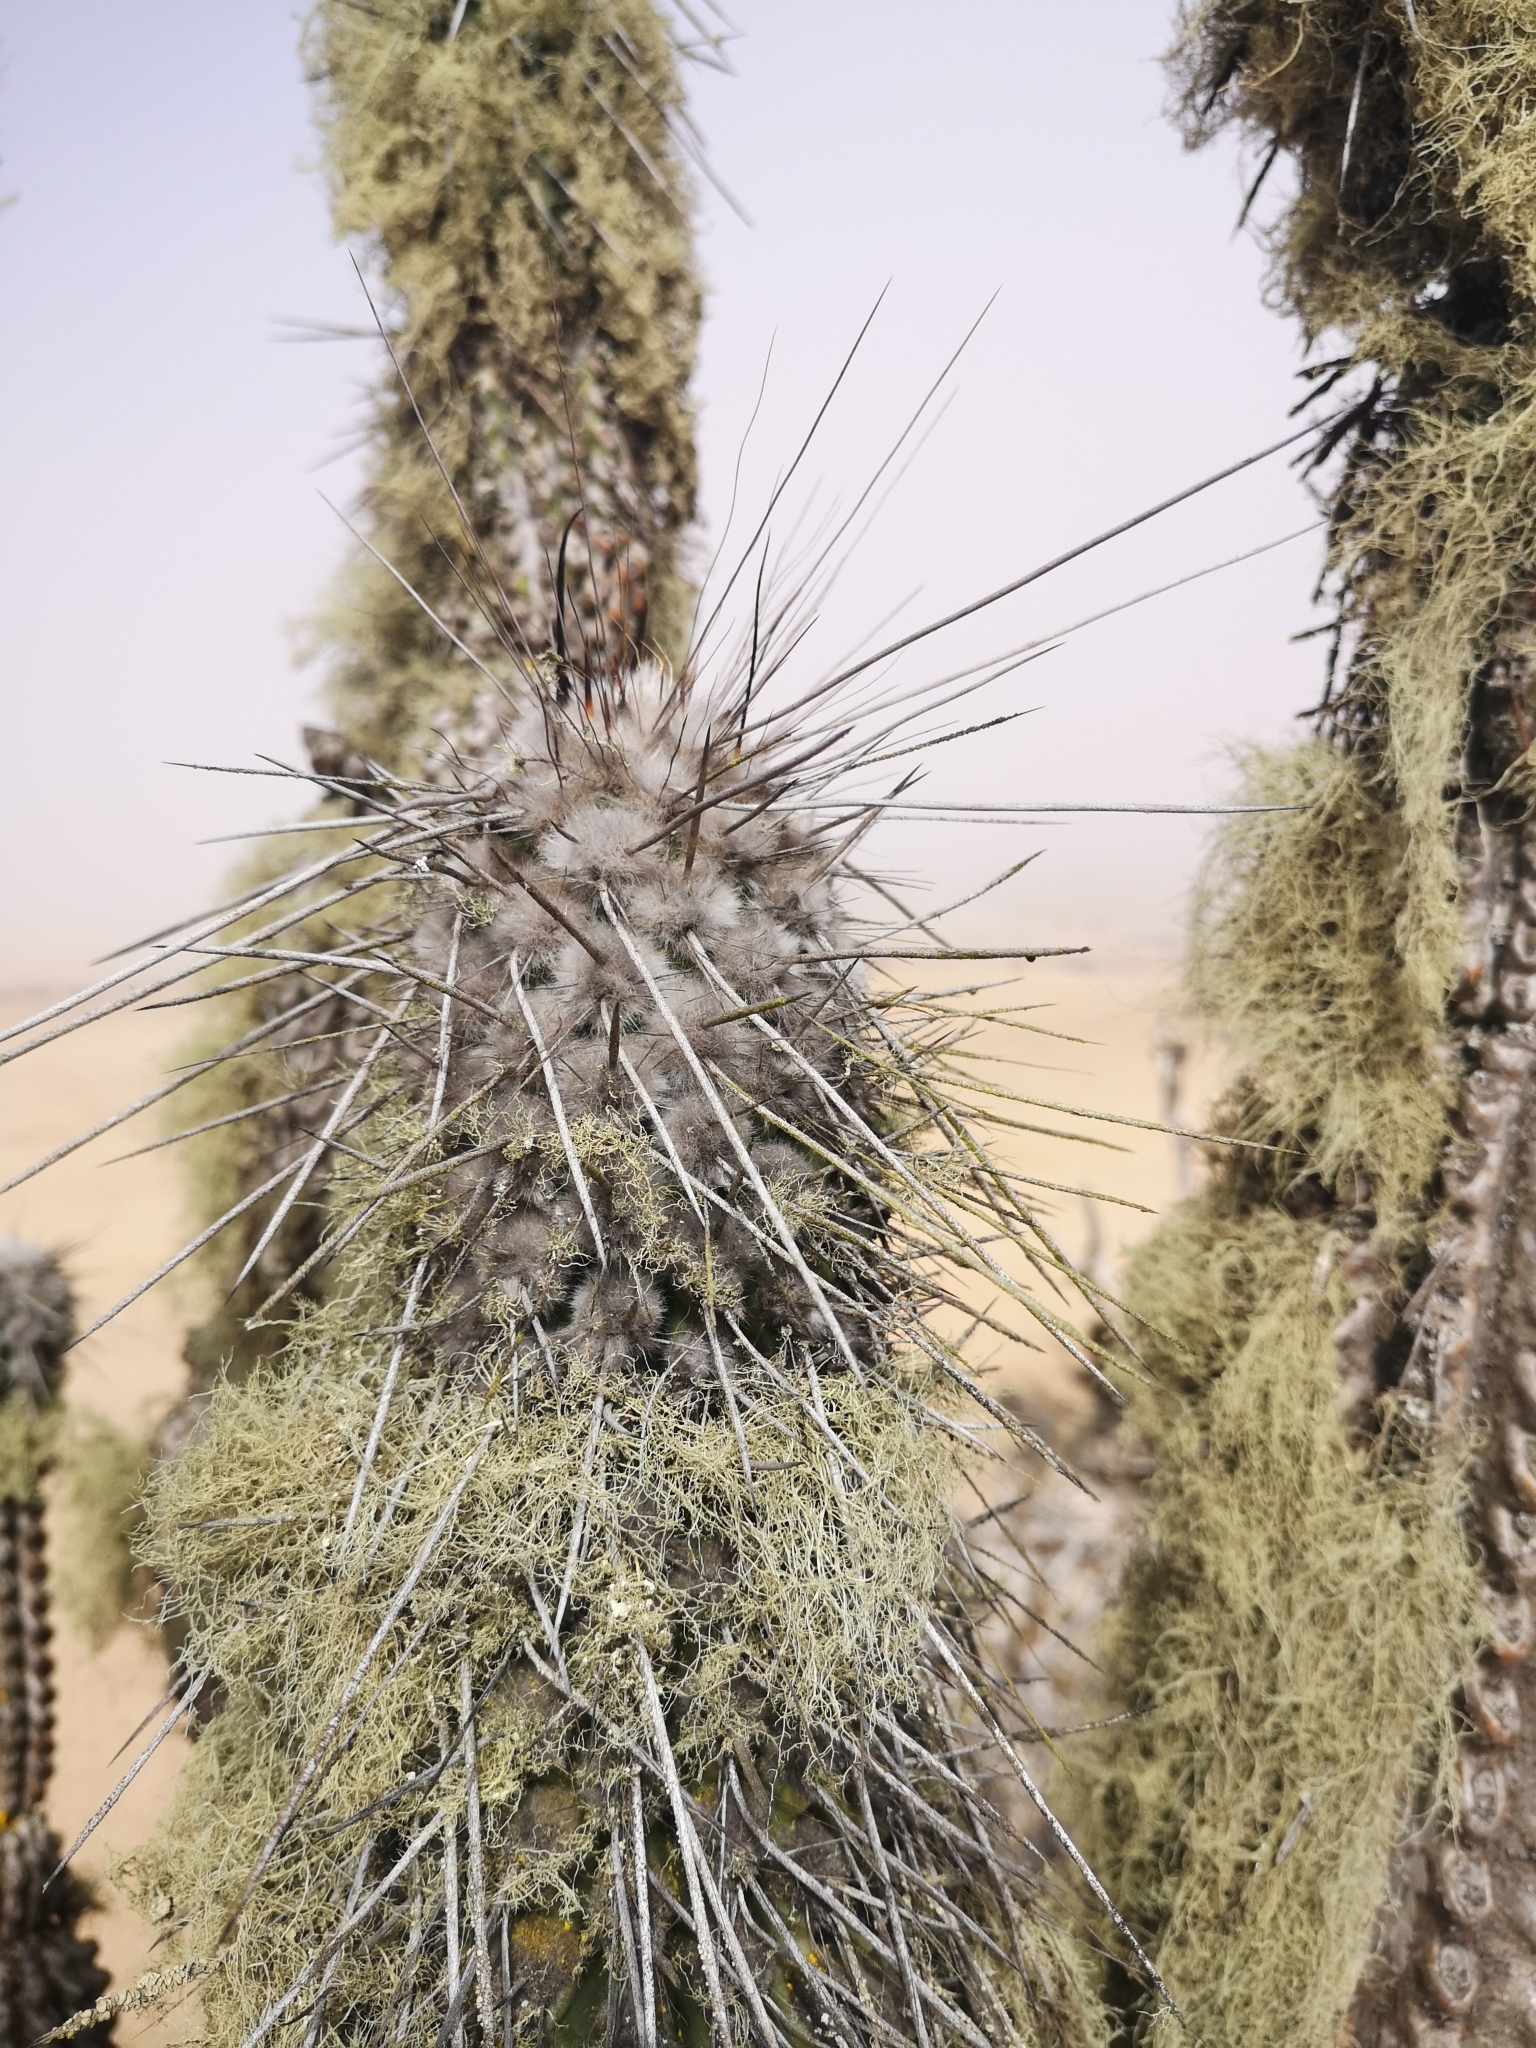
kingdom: Plantae
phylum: Tracheophyta
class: Magnoliopsida
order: Caryophyllales
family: Cactaceae
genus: Eulychnia
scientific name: Eulychnia iquiquensis
